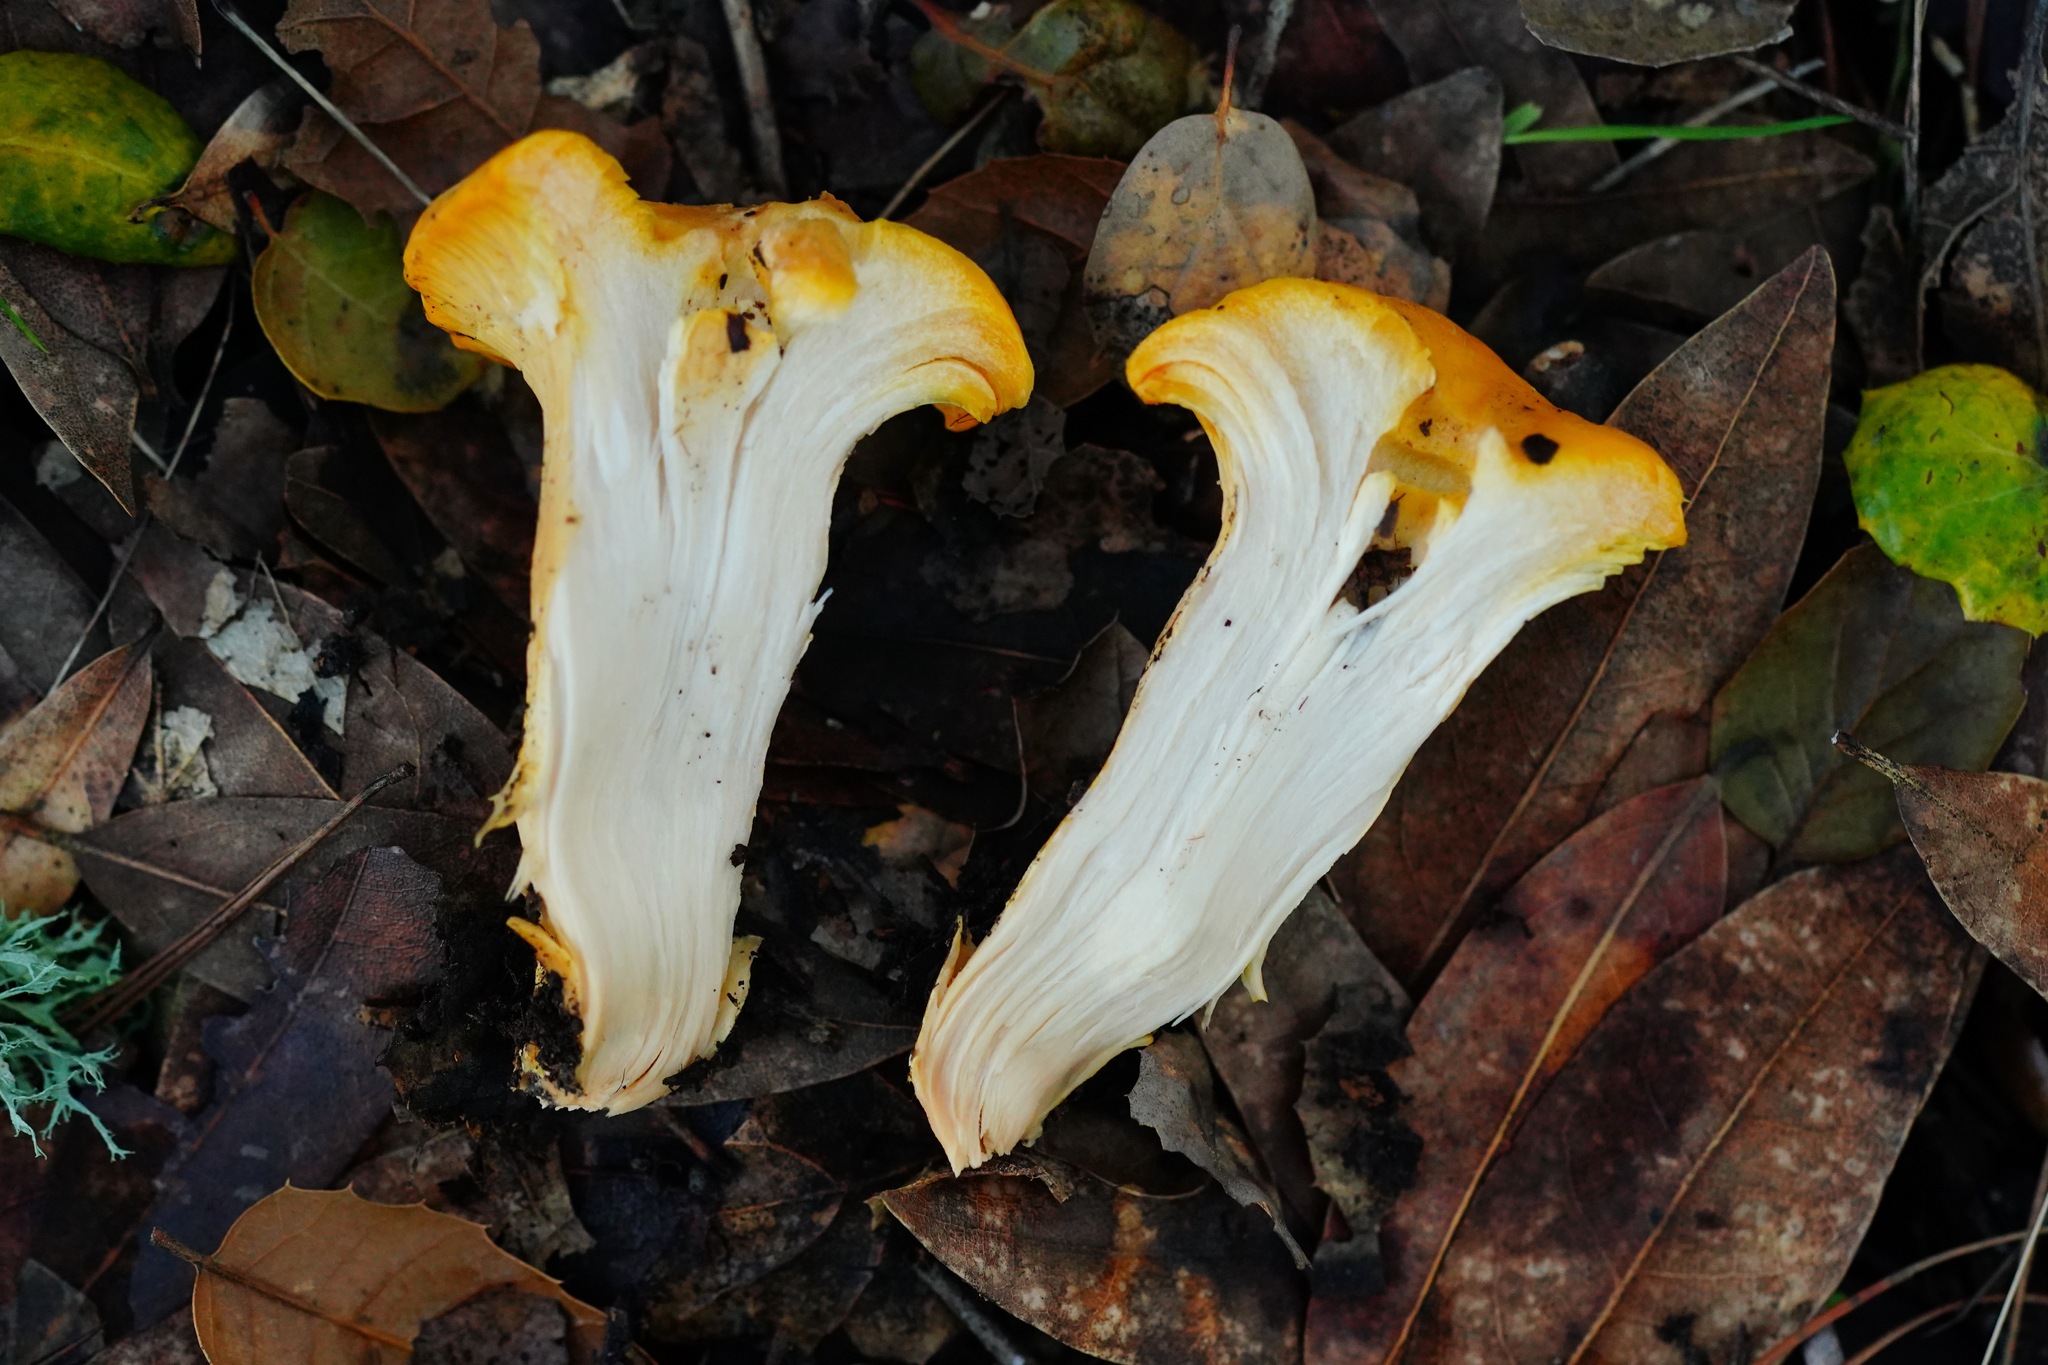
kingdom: Fungi
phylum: Basidiomycota
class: Agaricomycetes
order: Cantharellales
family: Hydnaceae
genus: Cantharellus
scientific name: Cantharellus californicus
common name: California golden chanterelle
